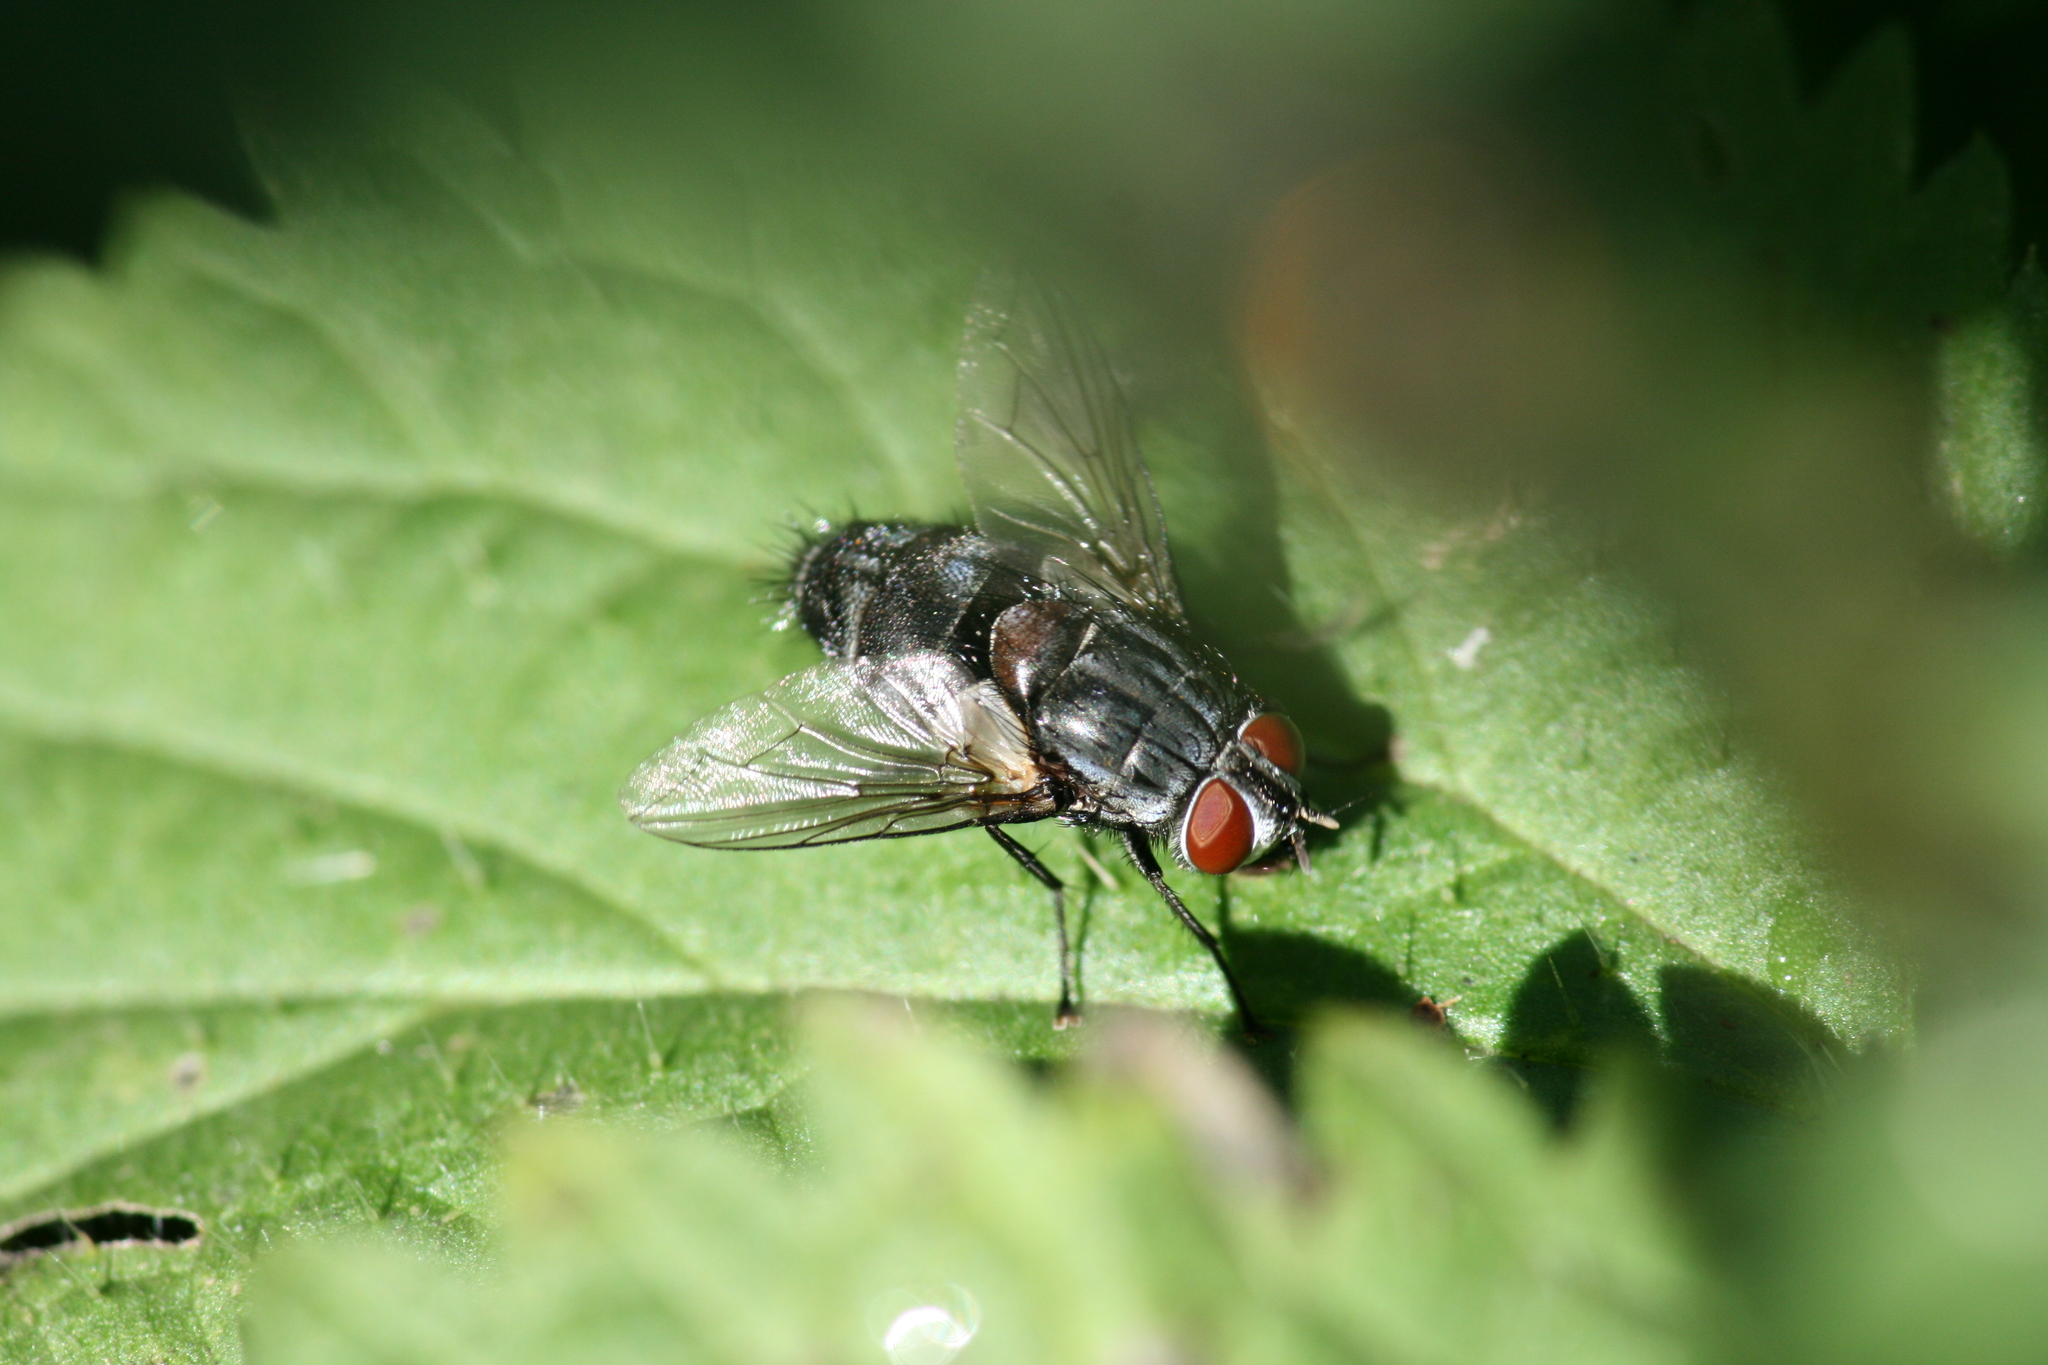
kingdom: Animalia
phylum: Arthropoda
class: Insecta
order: Diptera
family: Tachinidae
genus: Sturmia
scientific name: Sturmia bella
